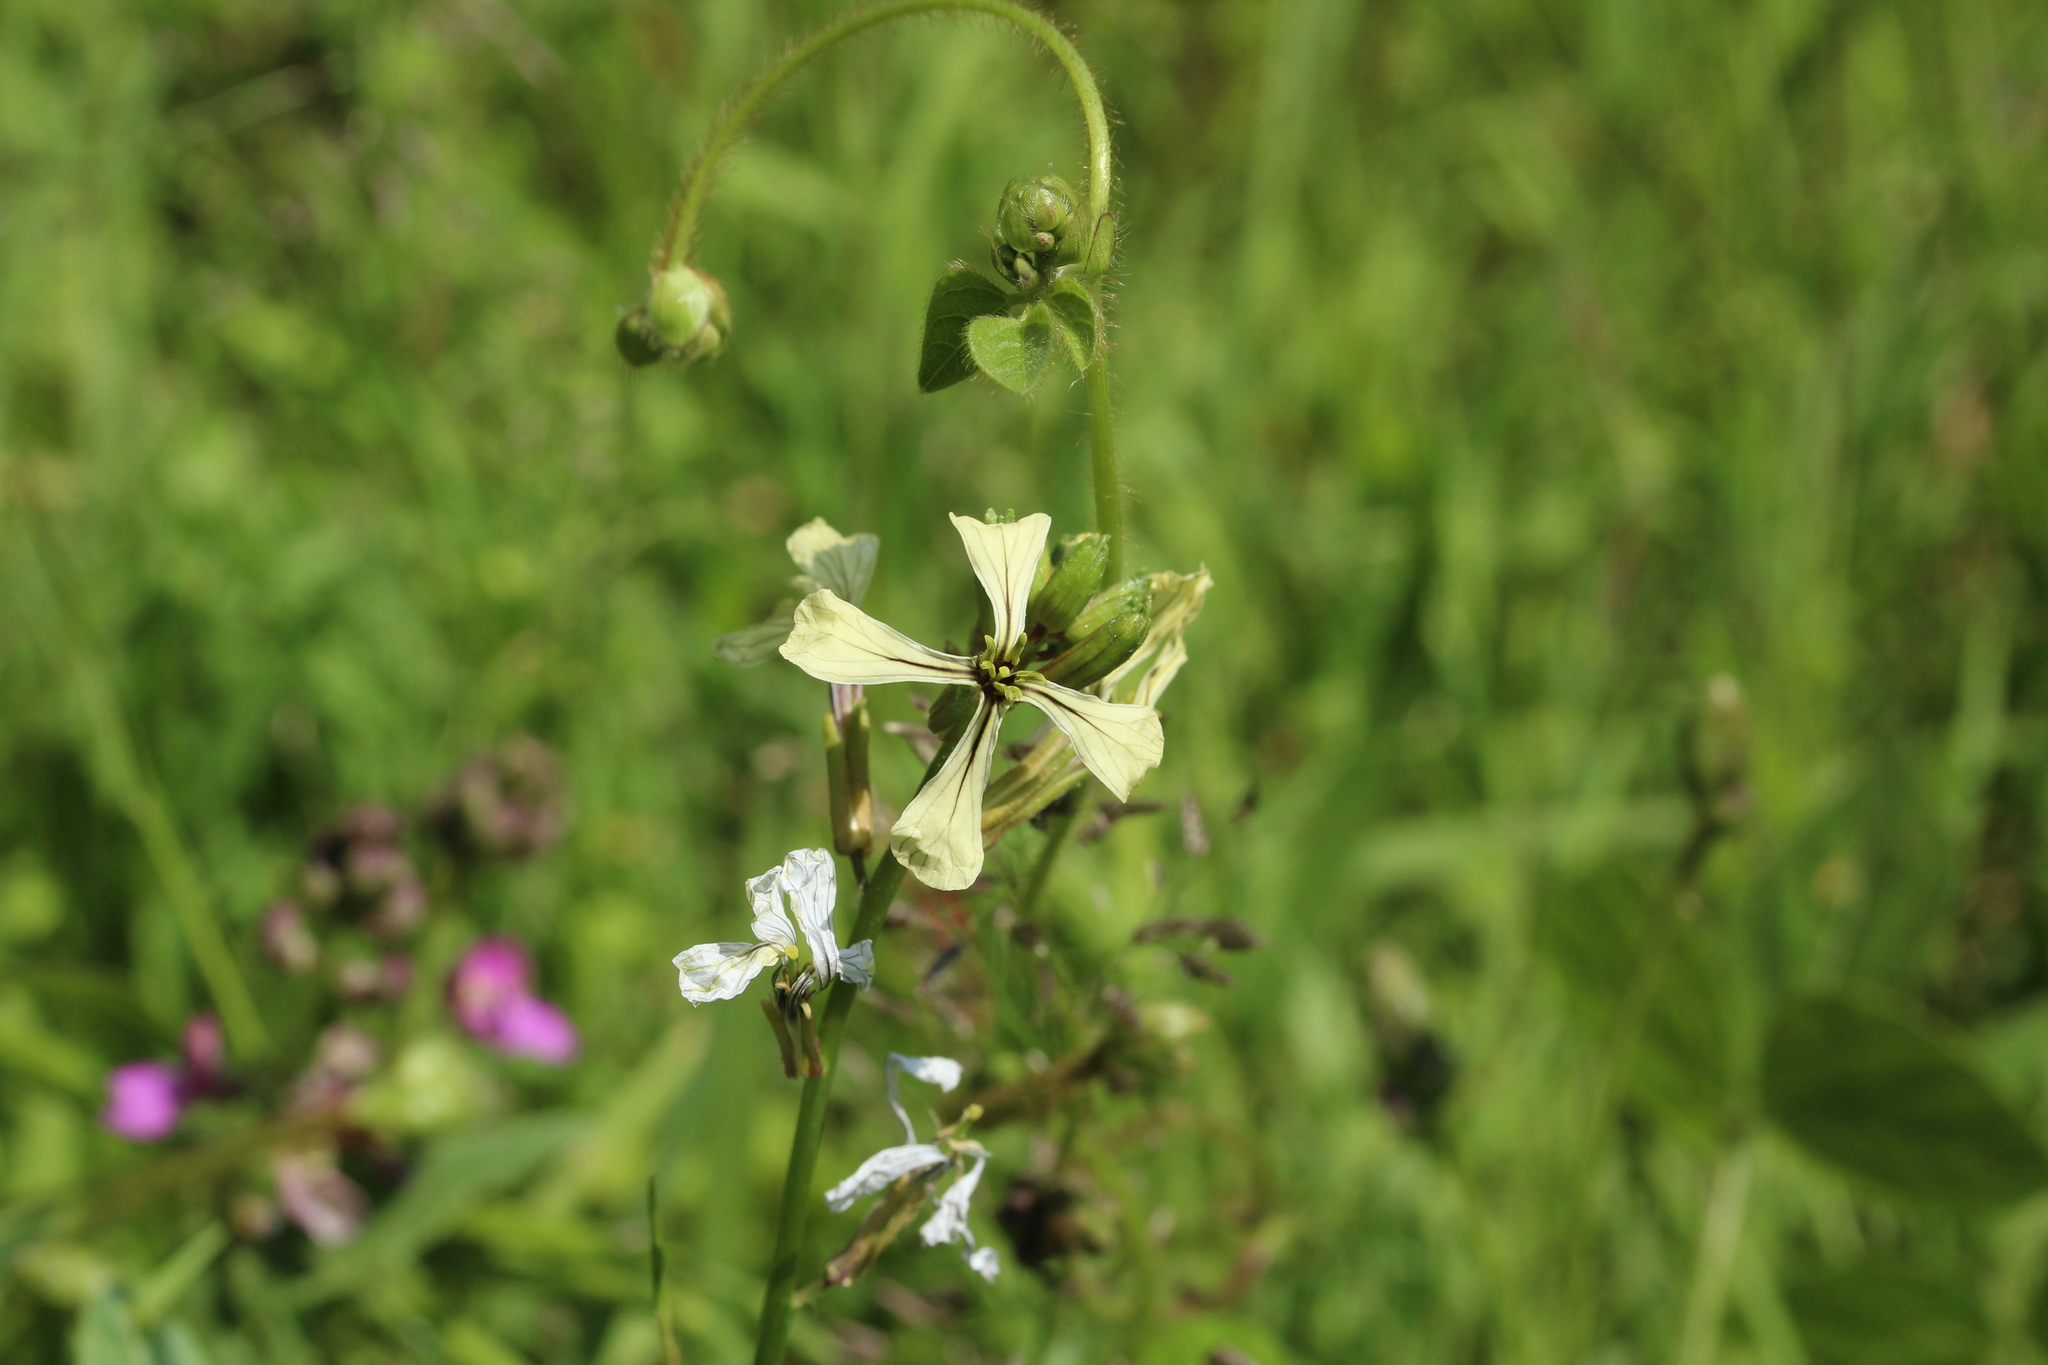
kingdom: Plantae
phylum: Tracheophyta
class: Magnoliopsida
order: Brassicales
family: Brassicaceae
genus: Eruca
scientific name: Eruca vesicaria
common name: Garden rocket
